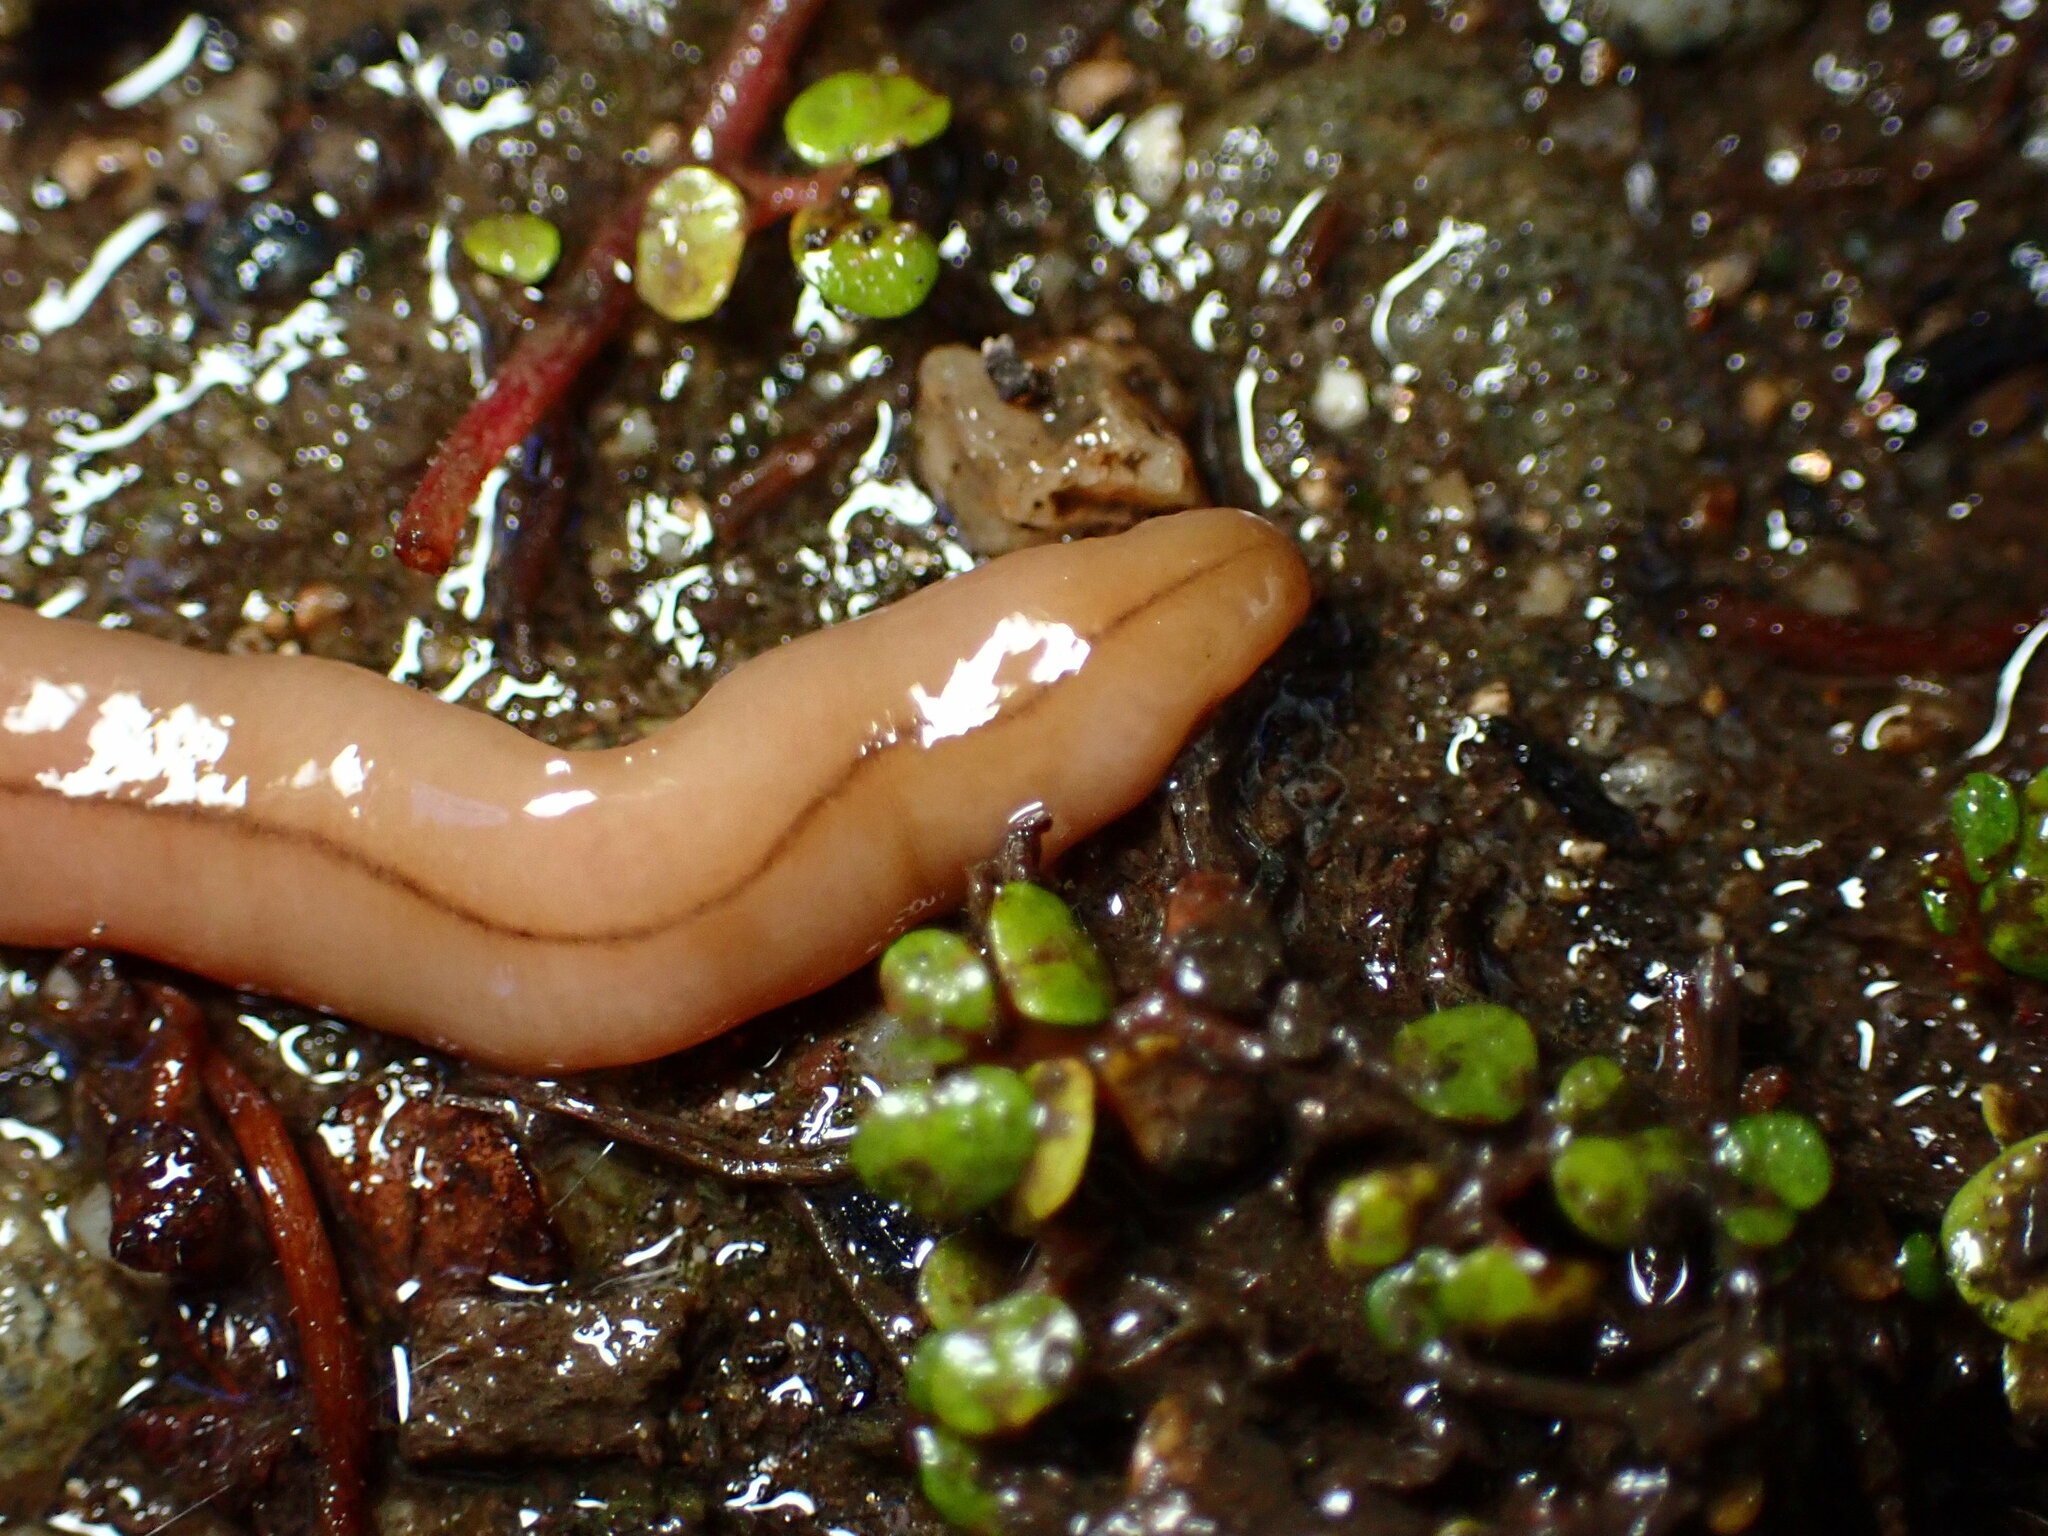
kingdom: Animalia
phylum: Platyhelminthes
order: Tricladida
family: Geoplanidae
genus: Bipalium
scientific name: Bipalium adventitium
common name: Land planarian
